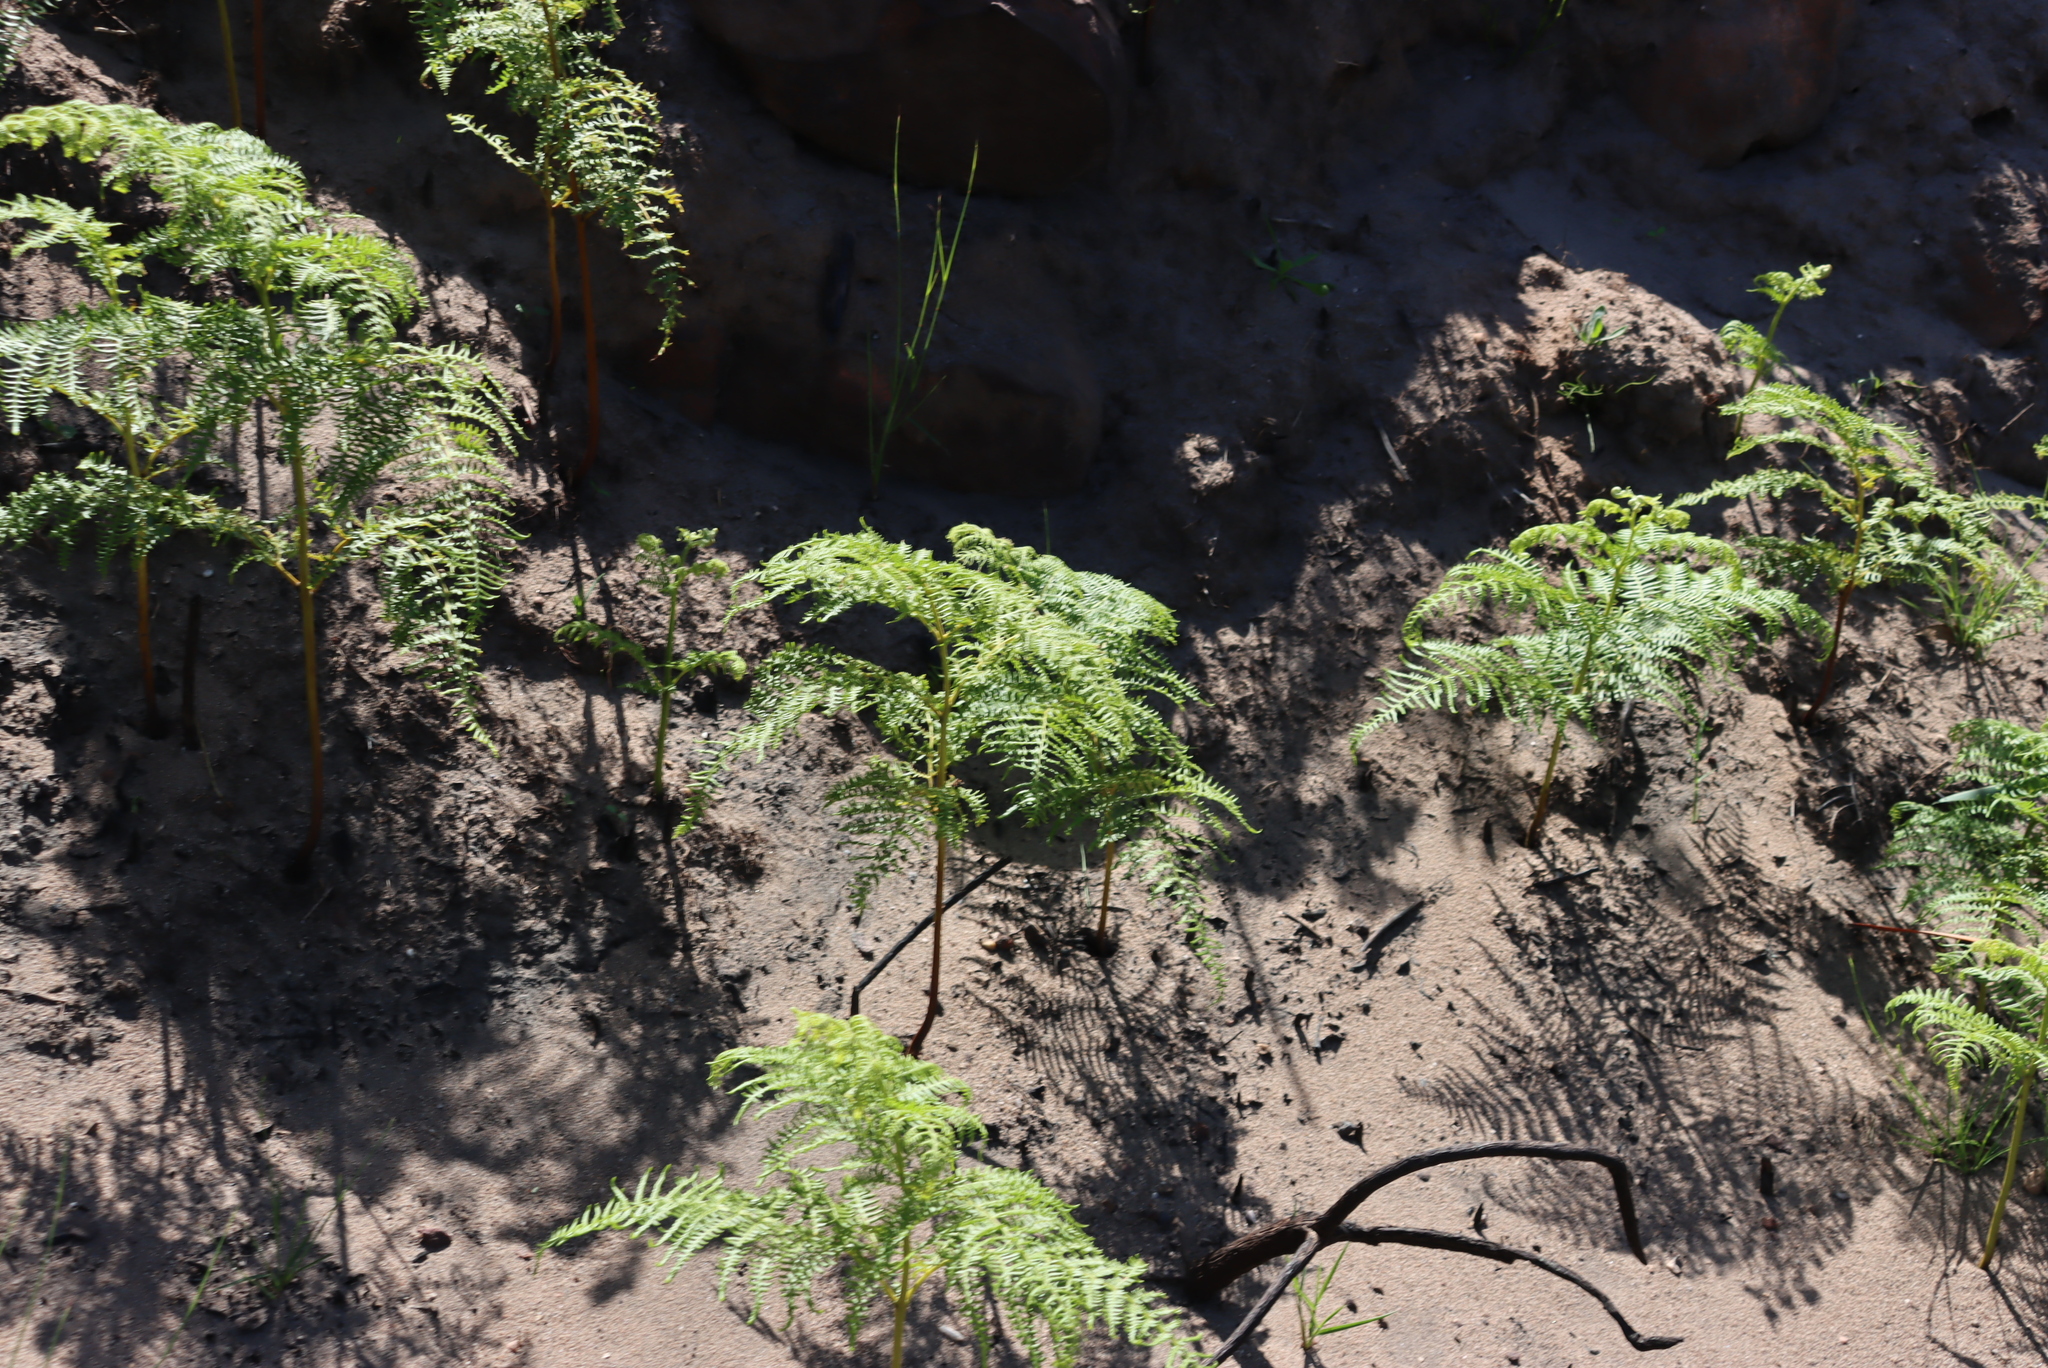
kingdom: Plantae
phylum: Tracheophyta
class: Polypodiopsida
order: Polypodiales
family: Dennstaedtiaceae
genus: Pteridium
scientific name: Pteridium aquilinum
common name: Bracken
